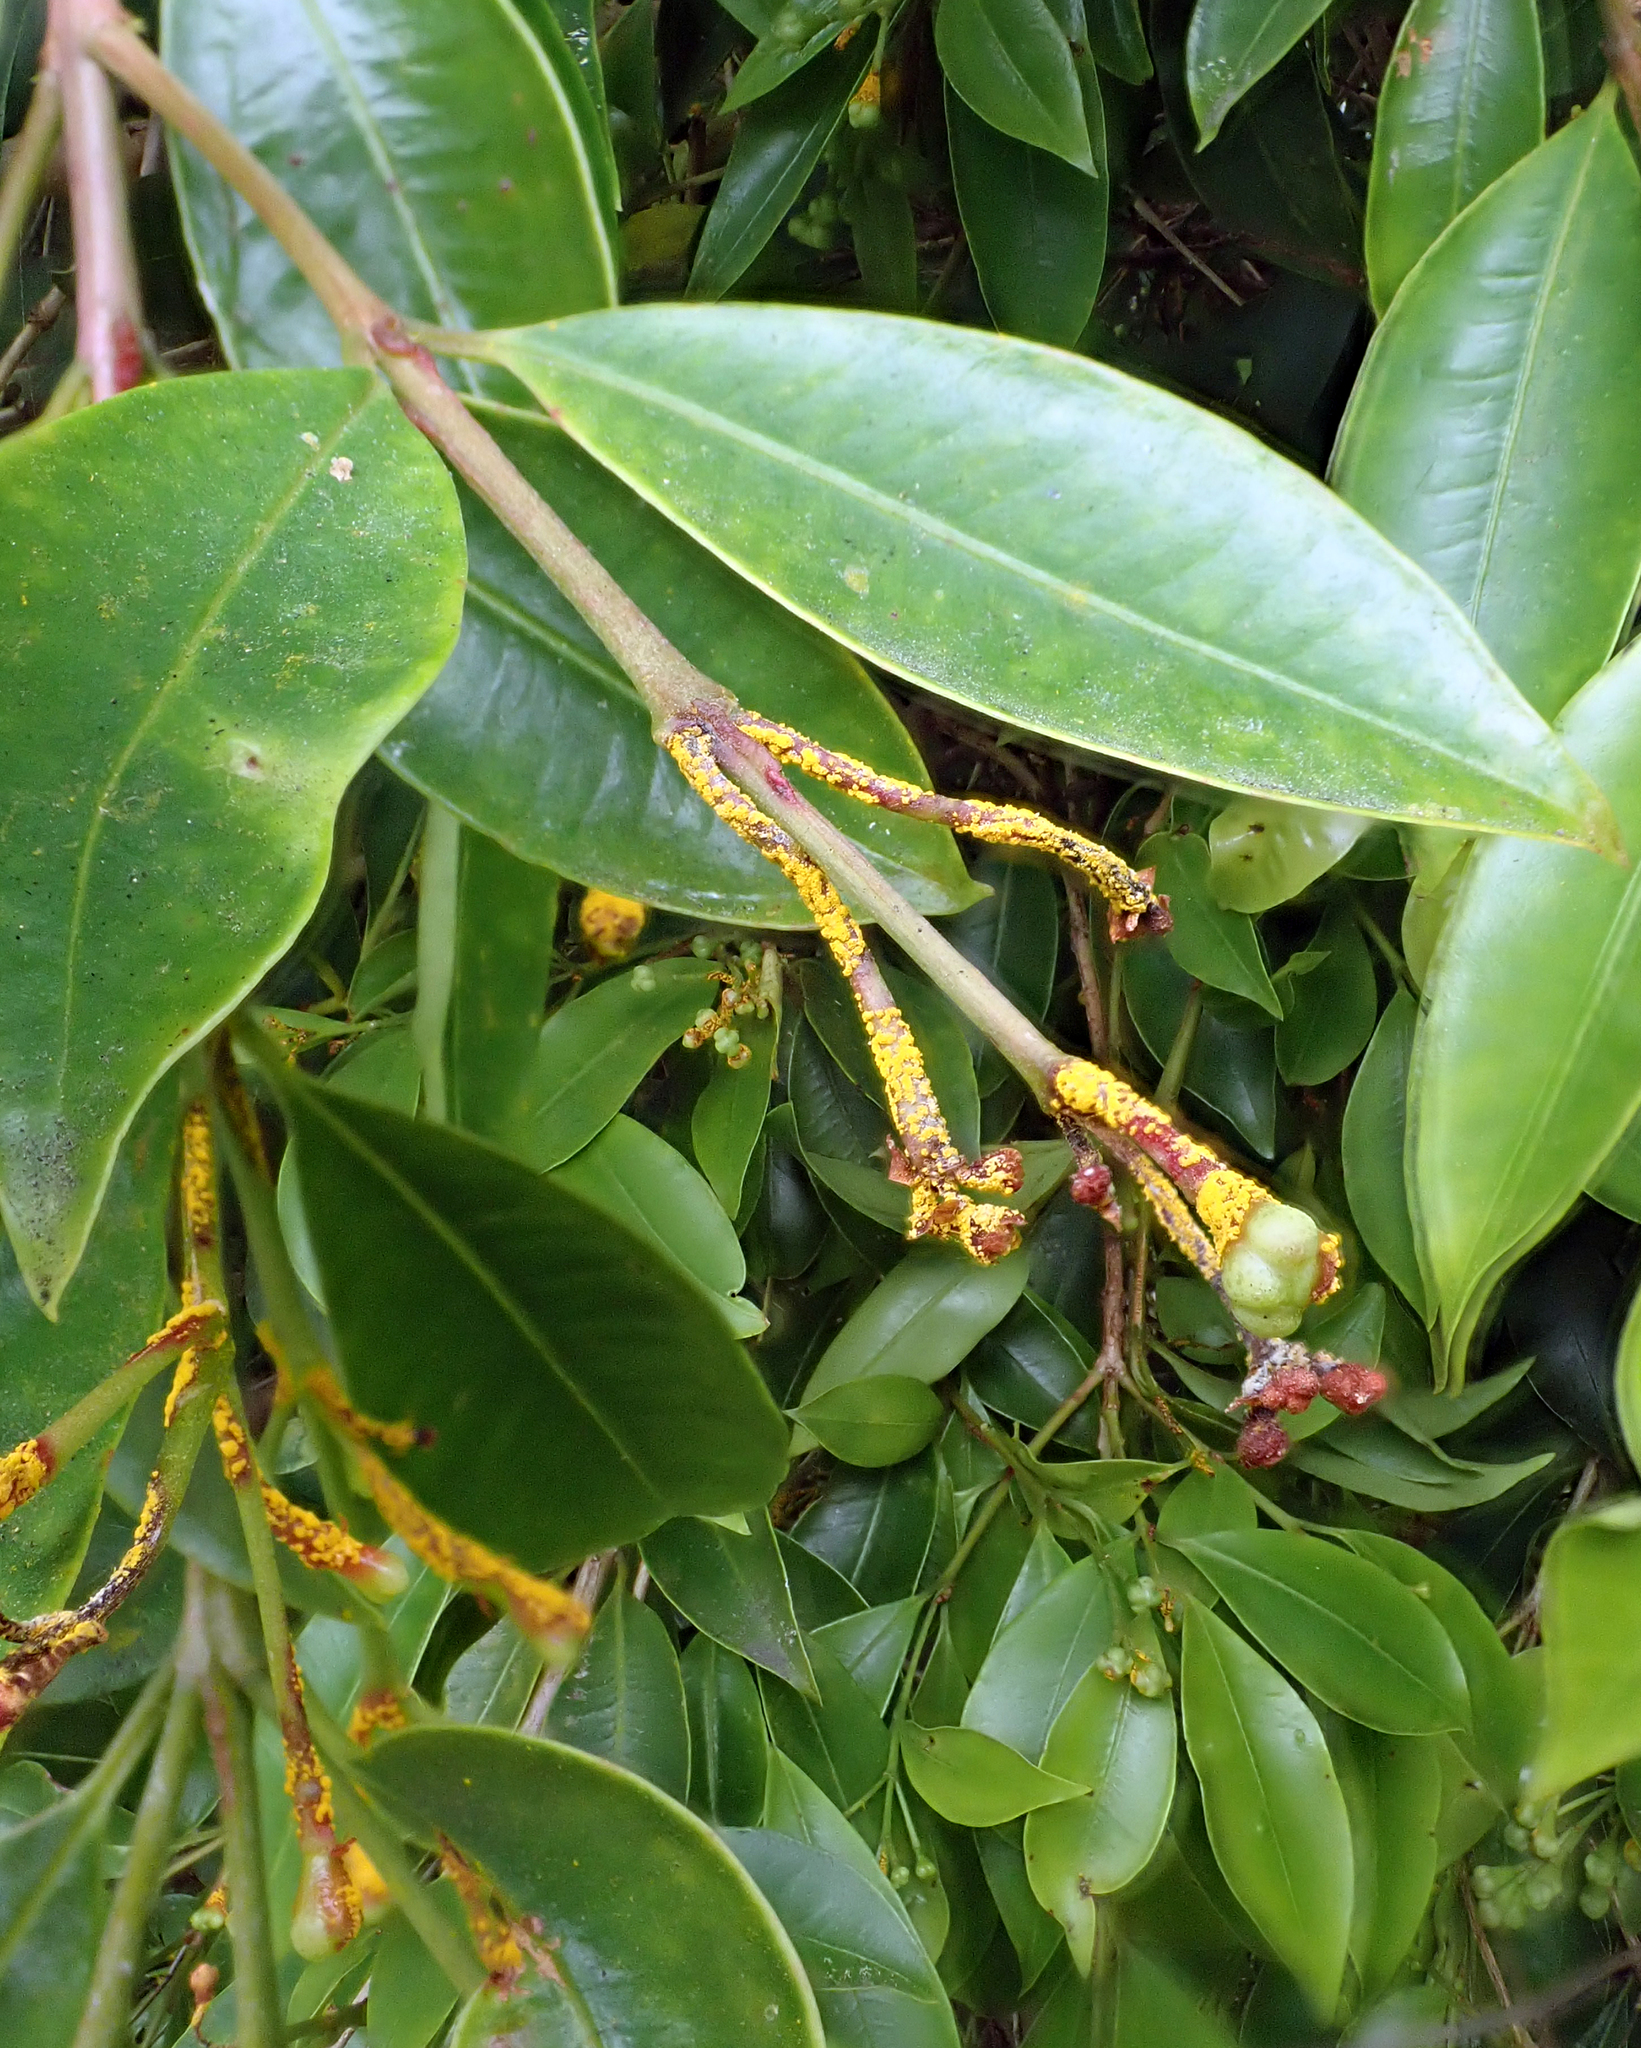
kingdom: Fungi
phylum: Basidiomycota
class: Pucciniomycetes
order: Pucciniales
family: Sphaerophragmiaceae
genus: Austropuccinia
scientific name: Austropuccinia psidii
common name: Myrtle rust
